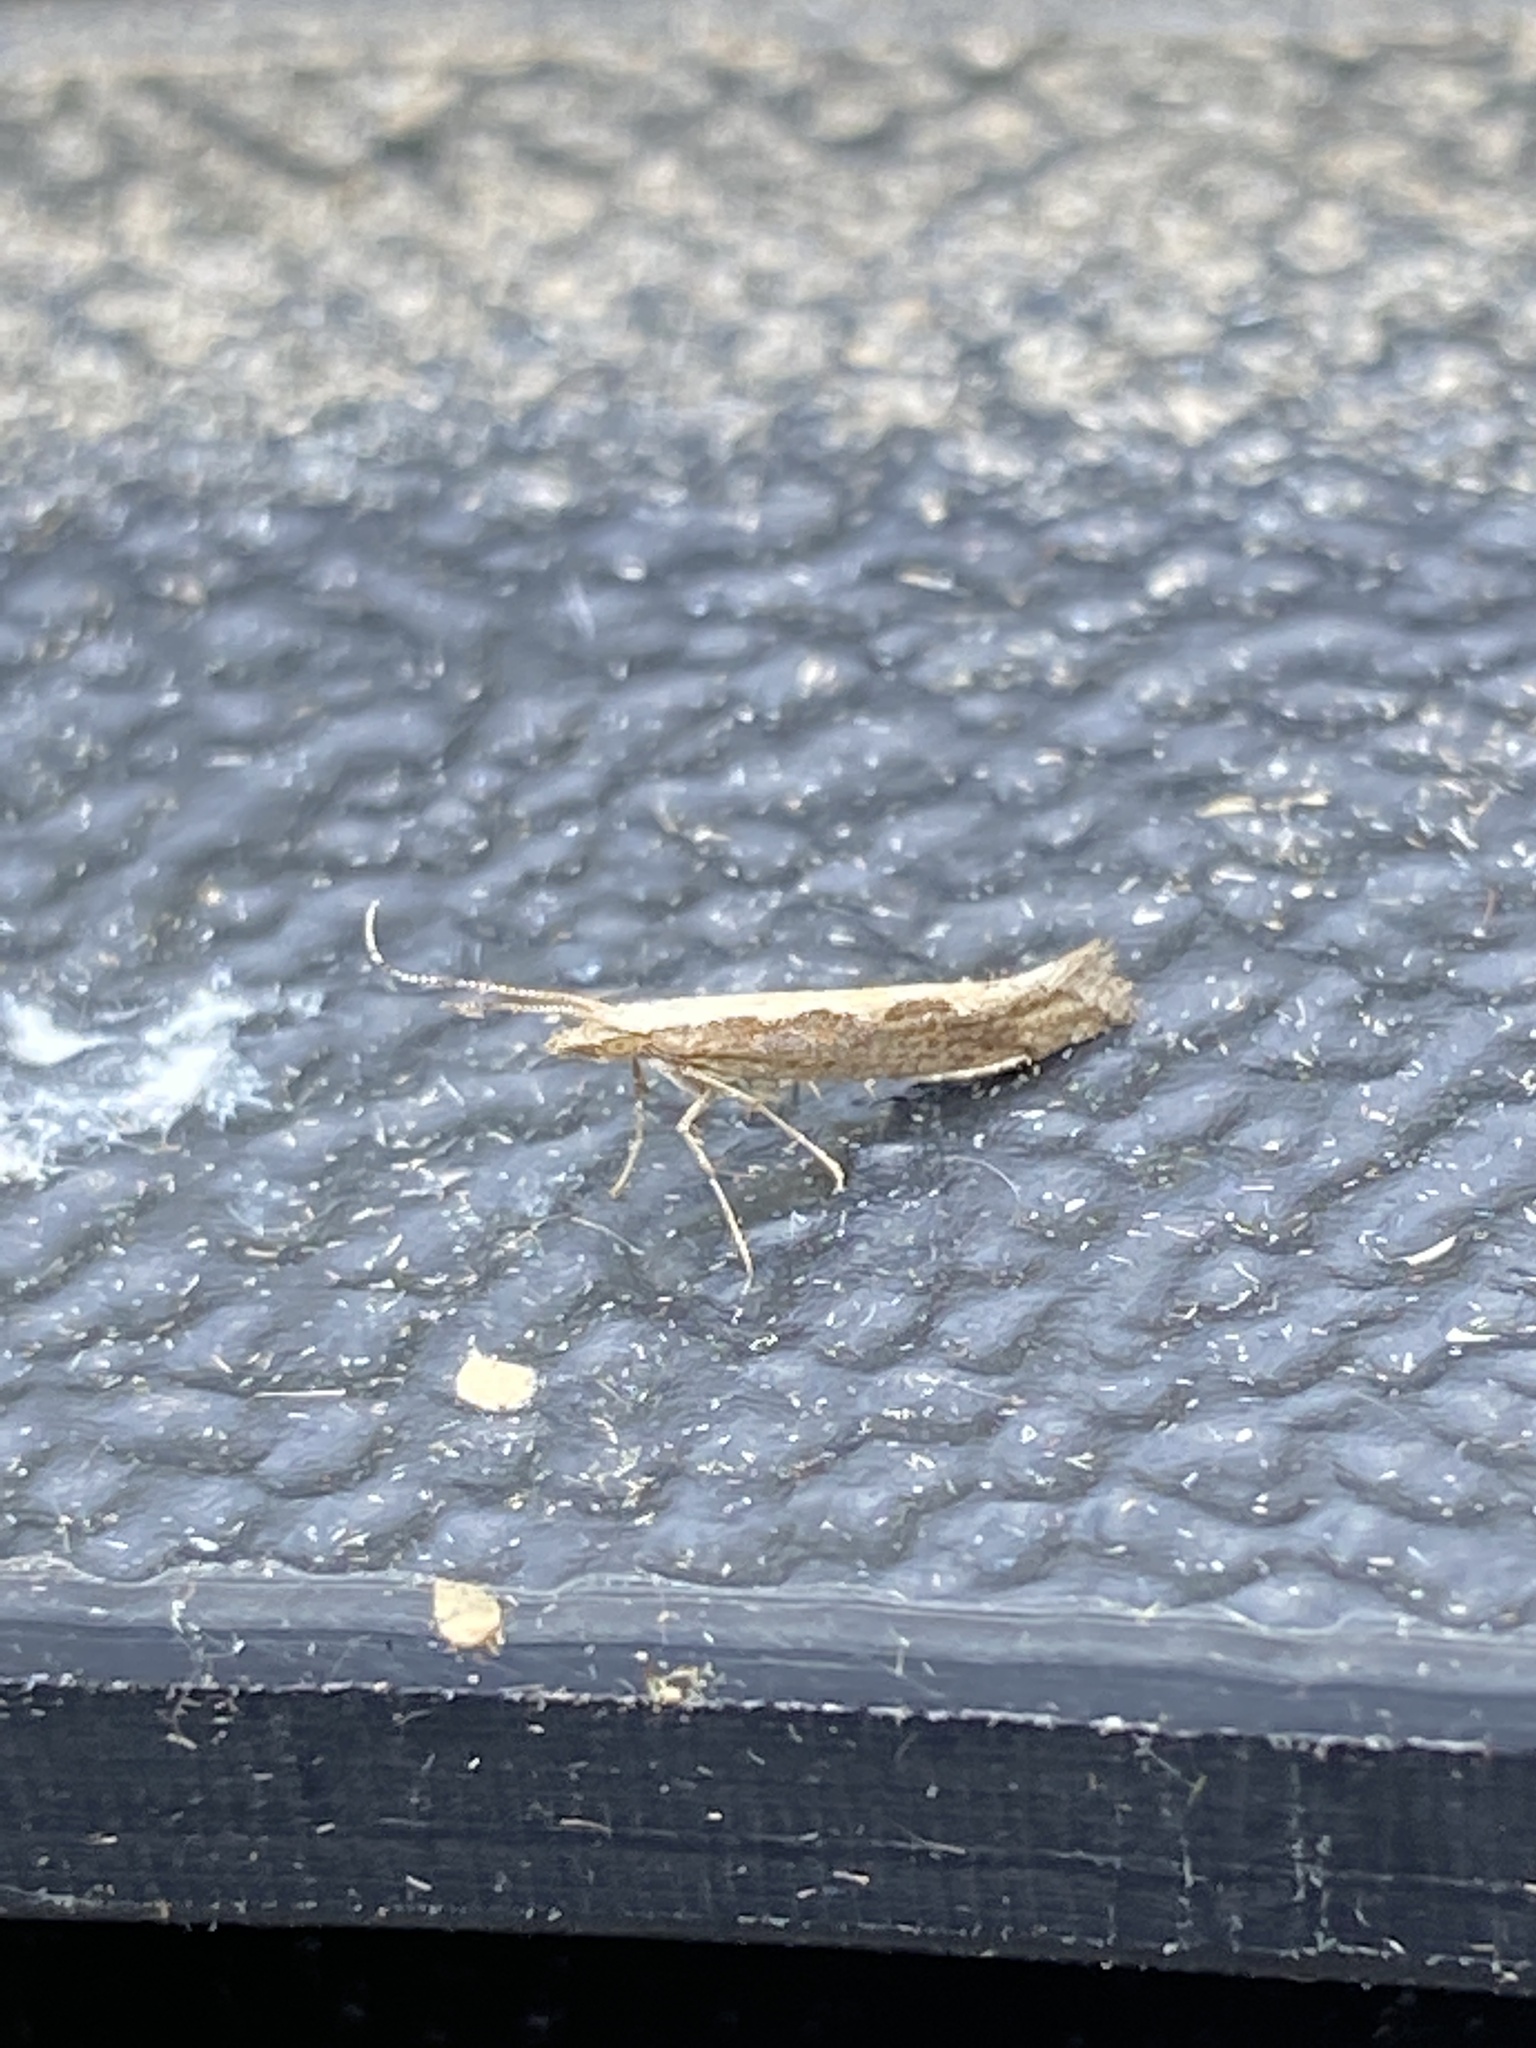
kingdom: Animalia
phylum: Arthropoda
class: Insecta
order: Lepidoptera
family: Plutellidae
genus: Plutella
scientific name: Plutella xylostella
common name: Diamond-back moth
